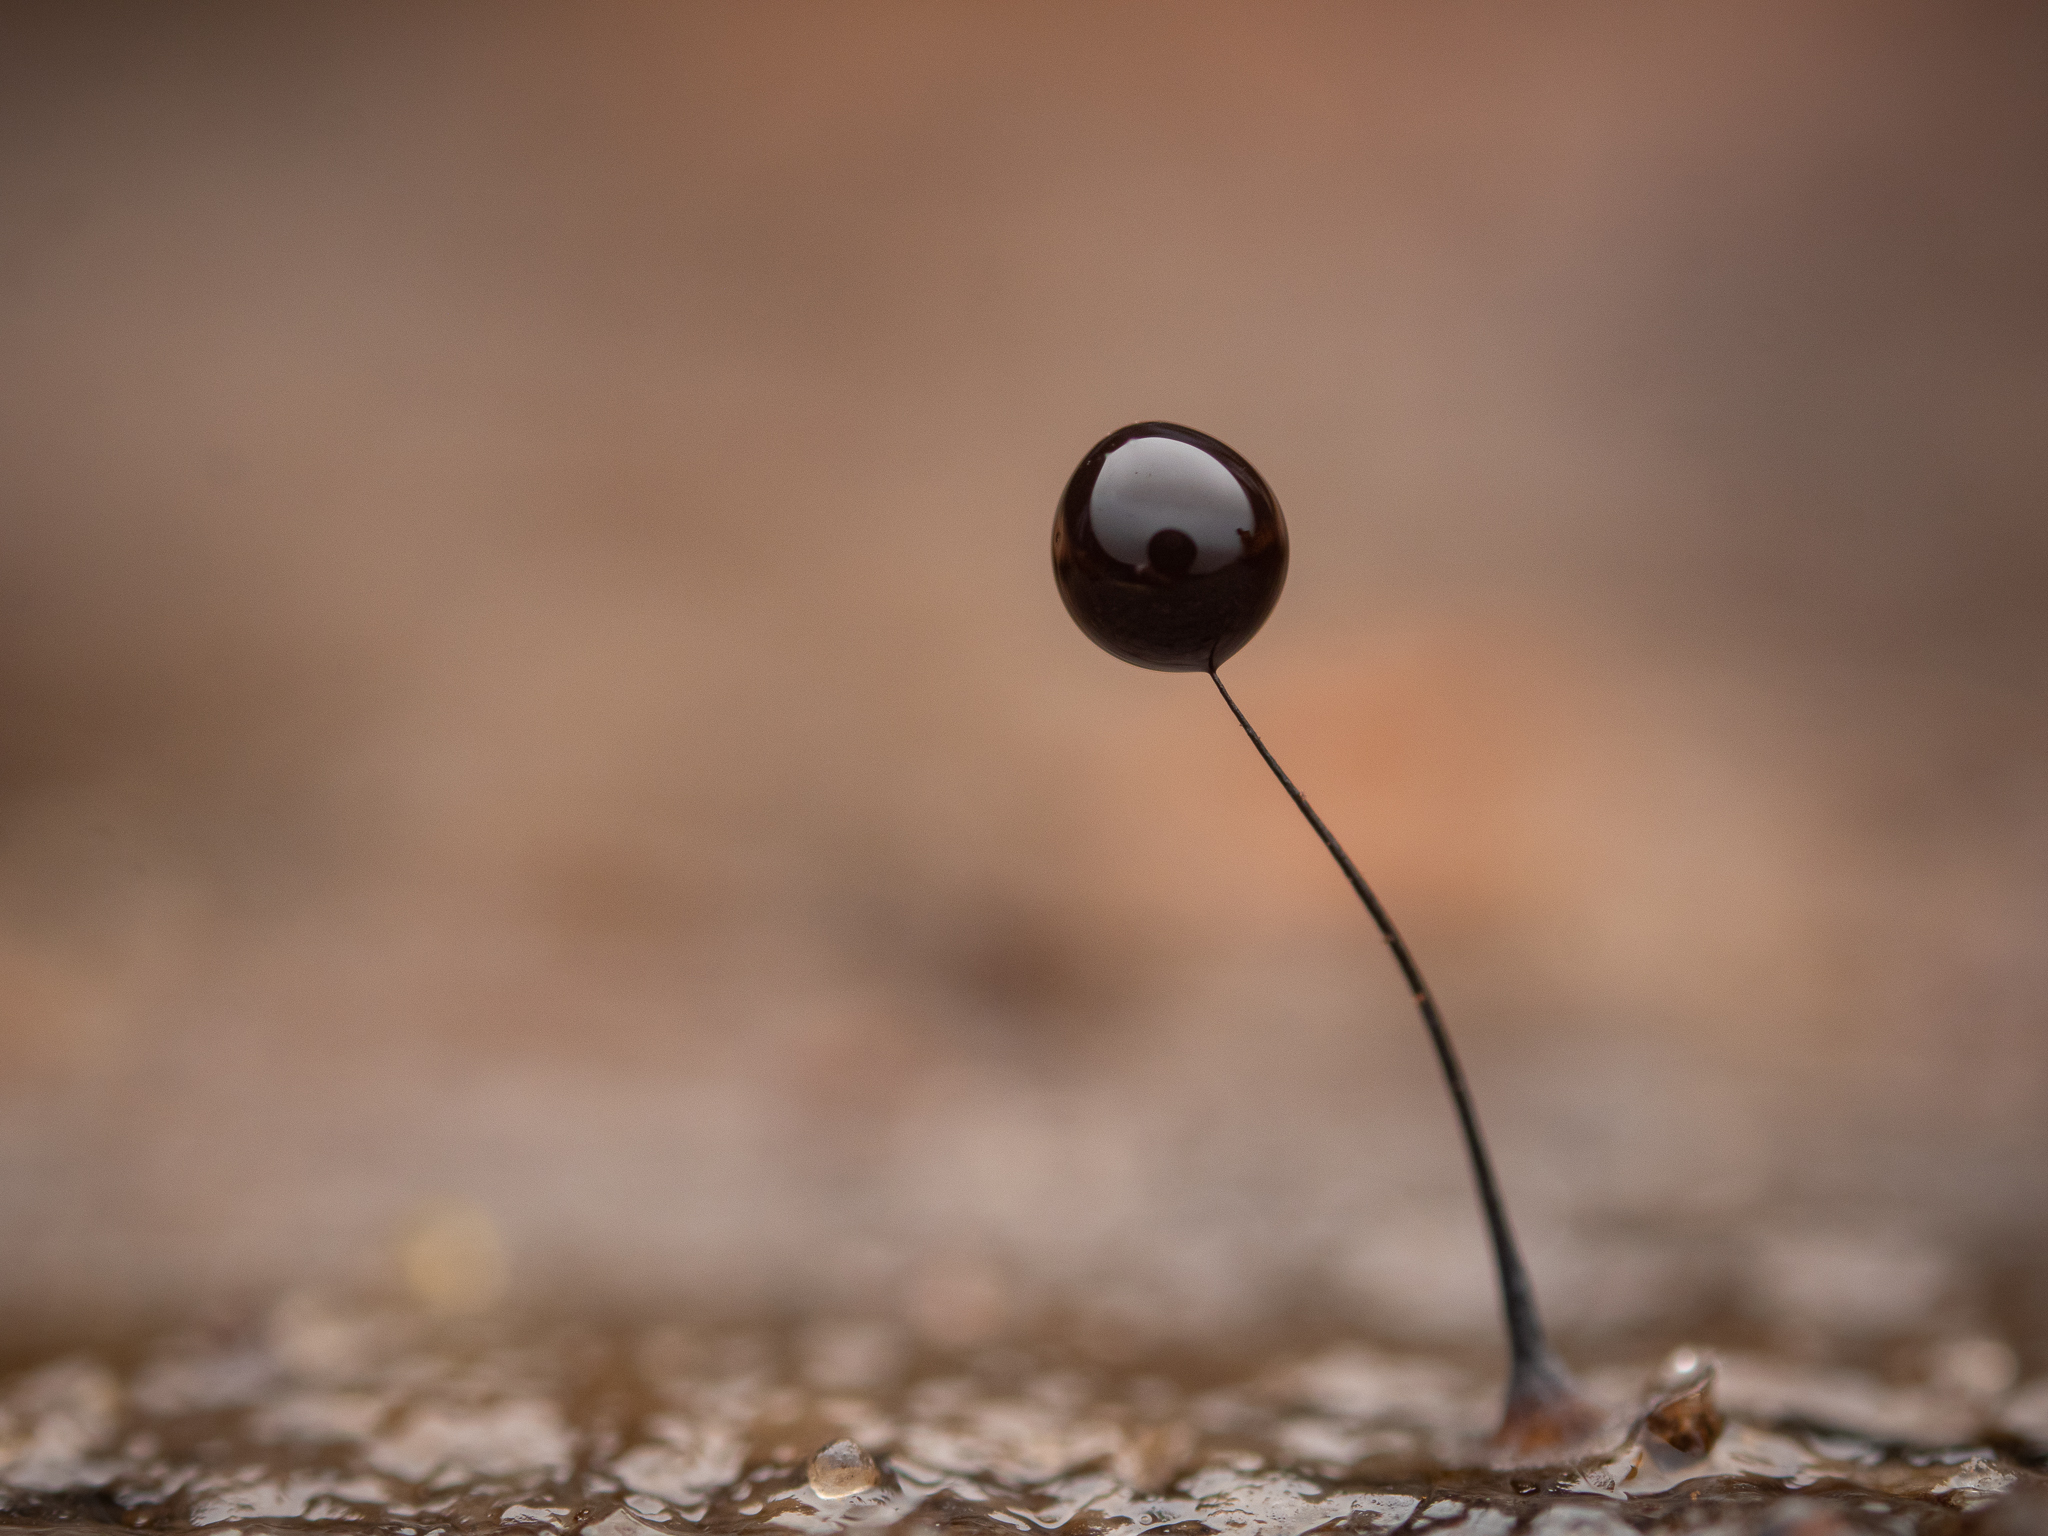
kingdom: Protozoa
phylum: Mycetozoa
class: Myxomycetes
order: Stemonitidales
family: Stemonitidaceae
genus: Comatricha
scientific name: Comatricha nigra
